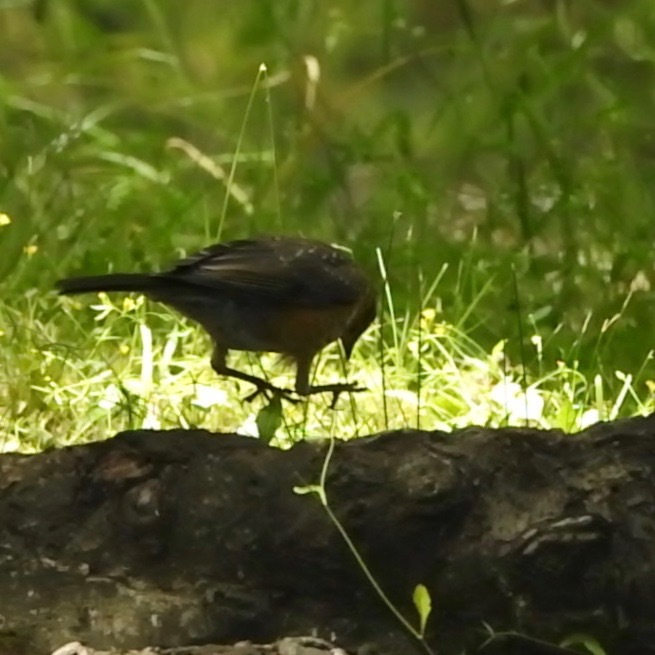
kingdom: Animalia
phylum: Chordata
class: Aves
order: Passeriformes
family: Turdidae
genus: Turdus
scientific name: Turdus migratorius
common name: American robin
